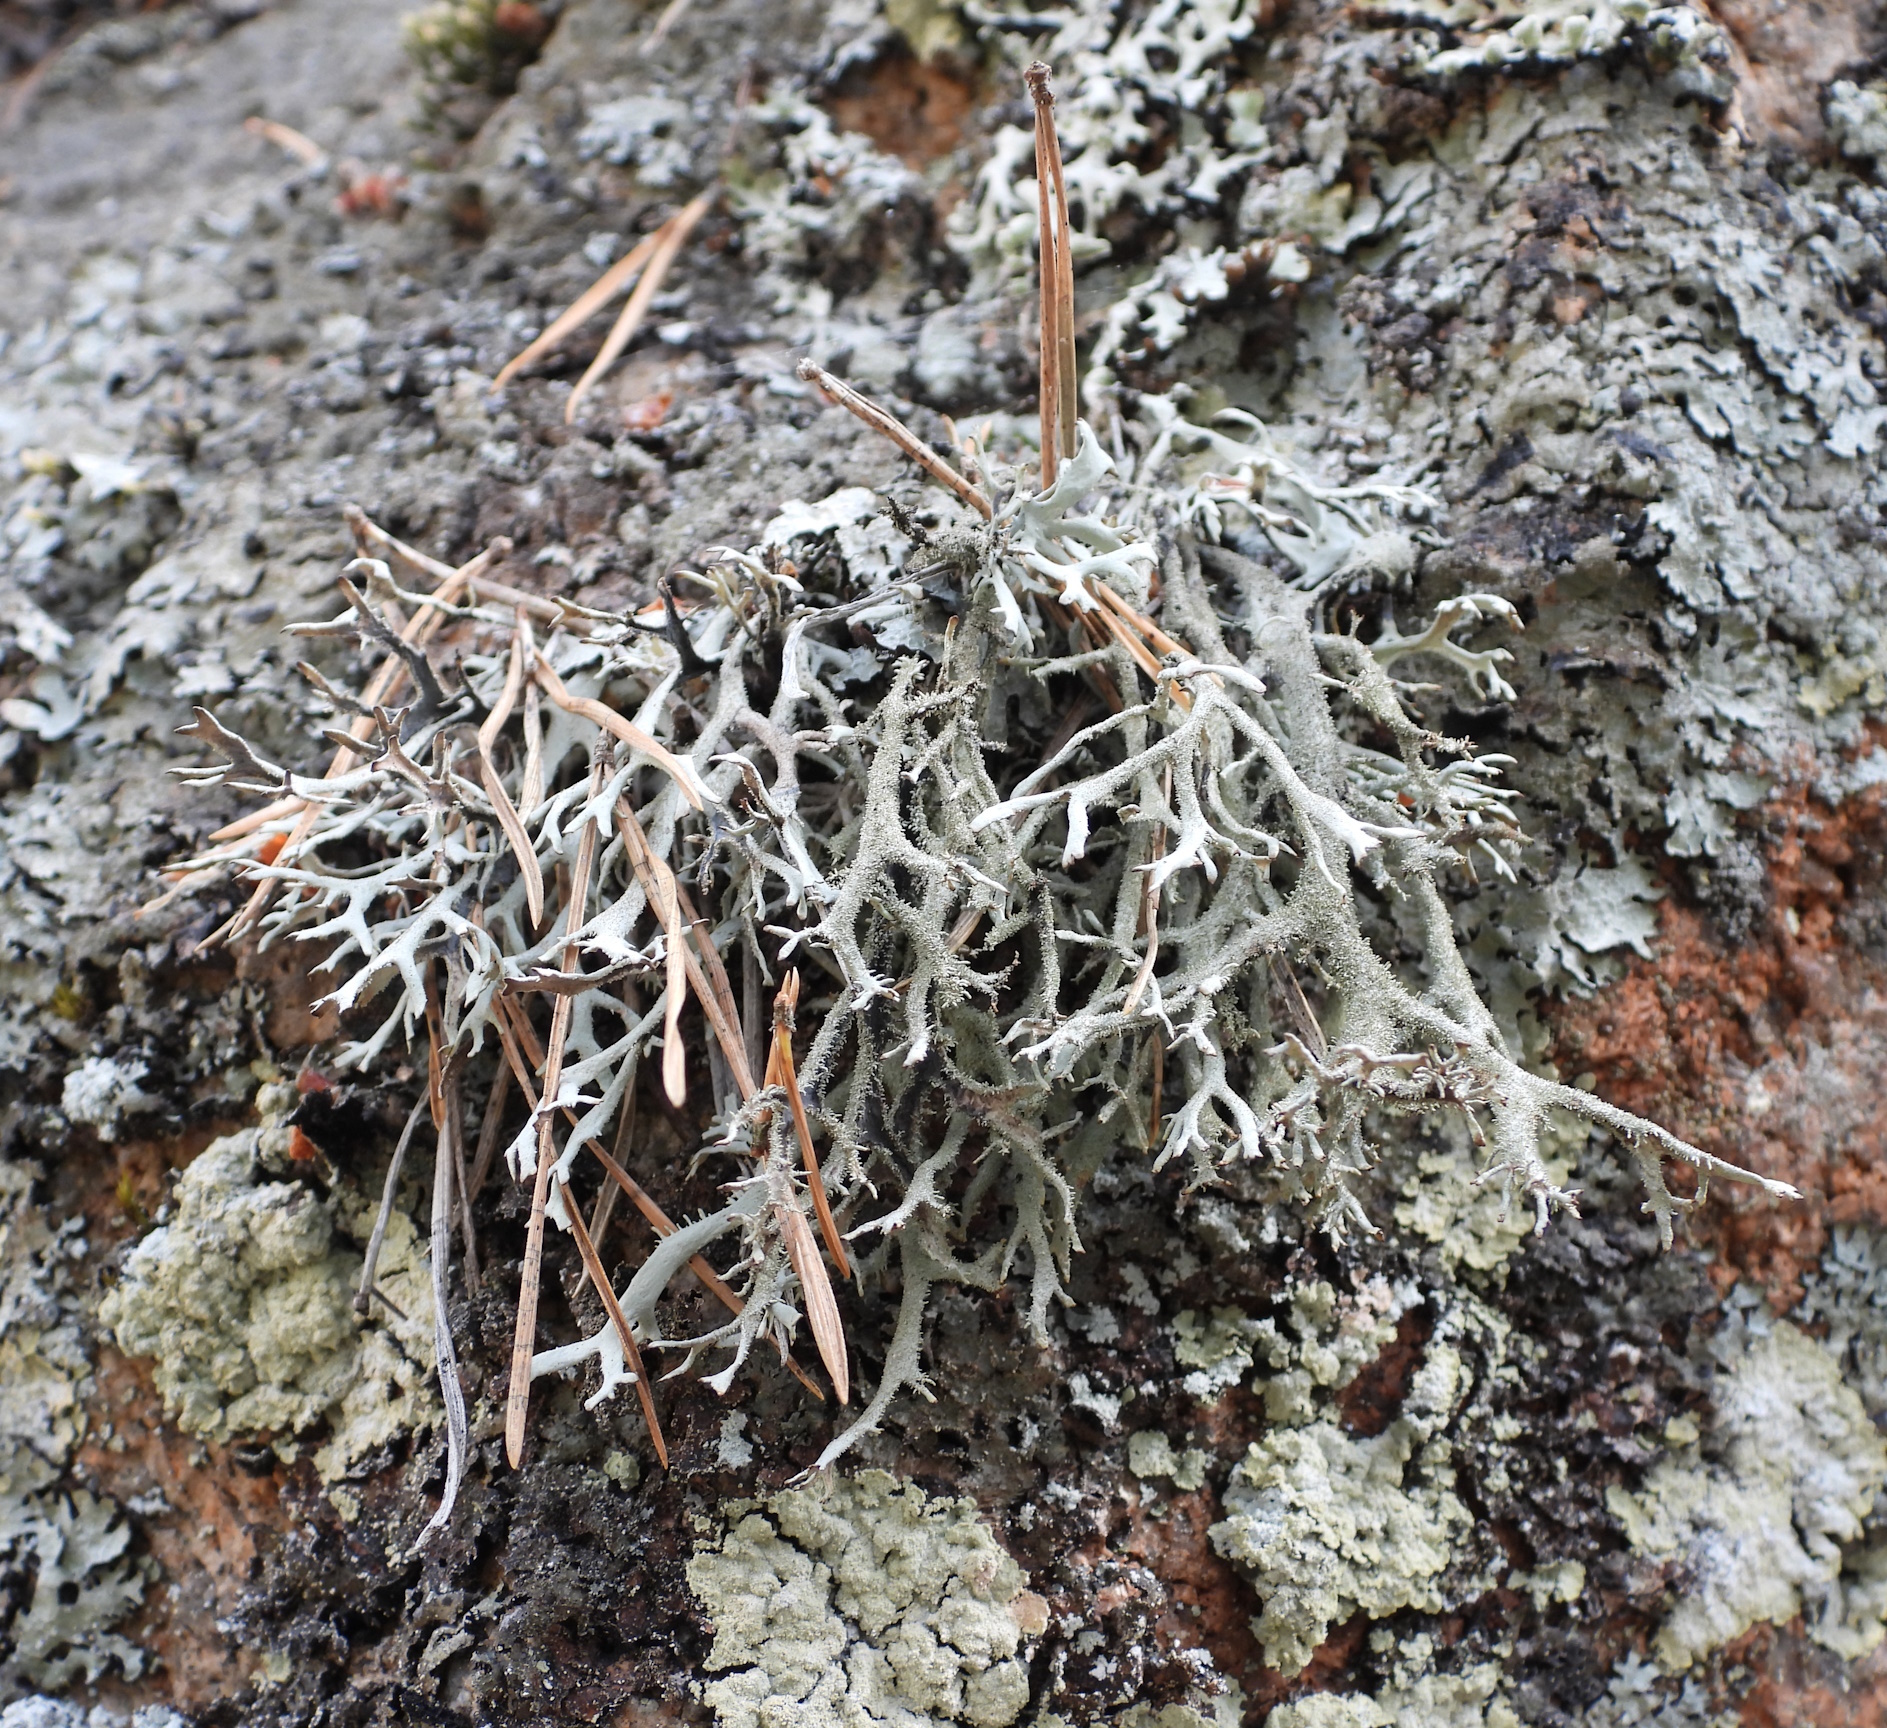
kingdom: Fungi
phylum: Ascomycota
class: Lecanoromycetes
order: Lecanorales
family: Parmeliaceae
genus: Pseudevernia
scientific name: Pseudevernia furfuracea
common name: Tree moss
